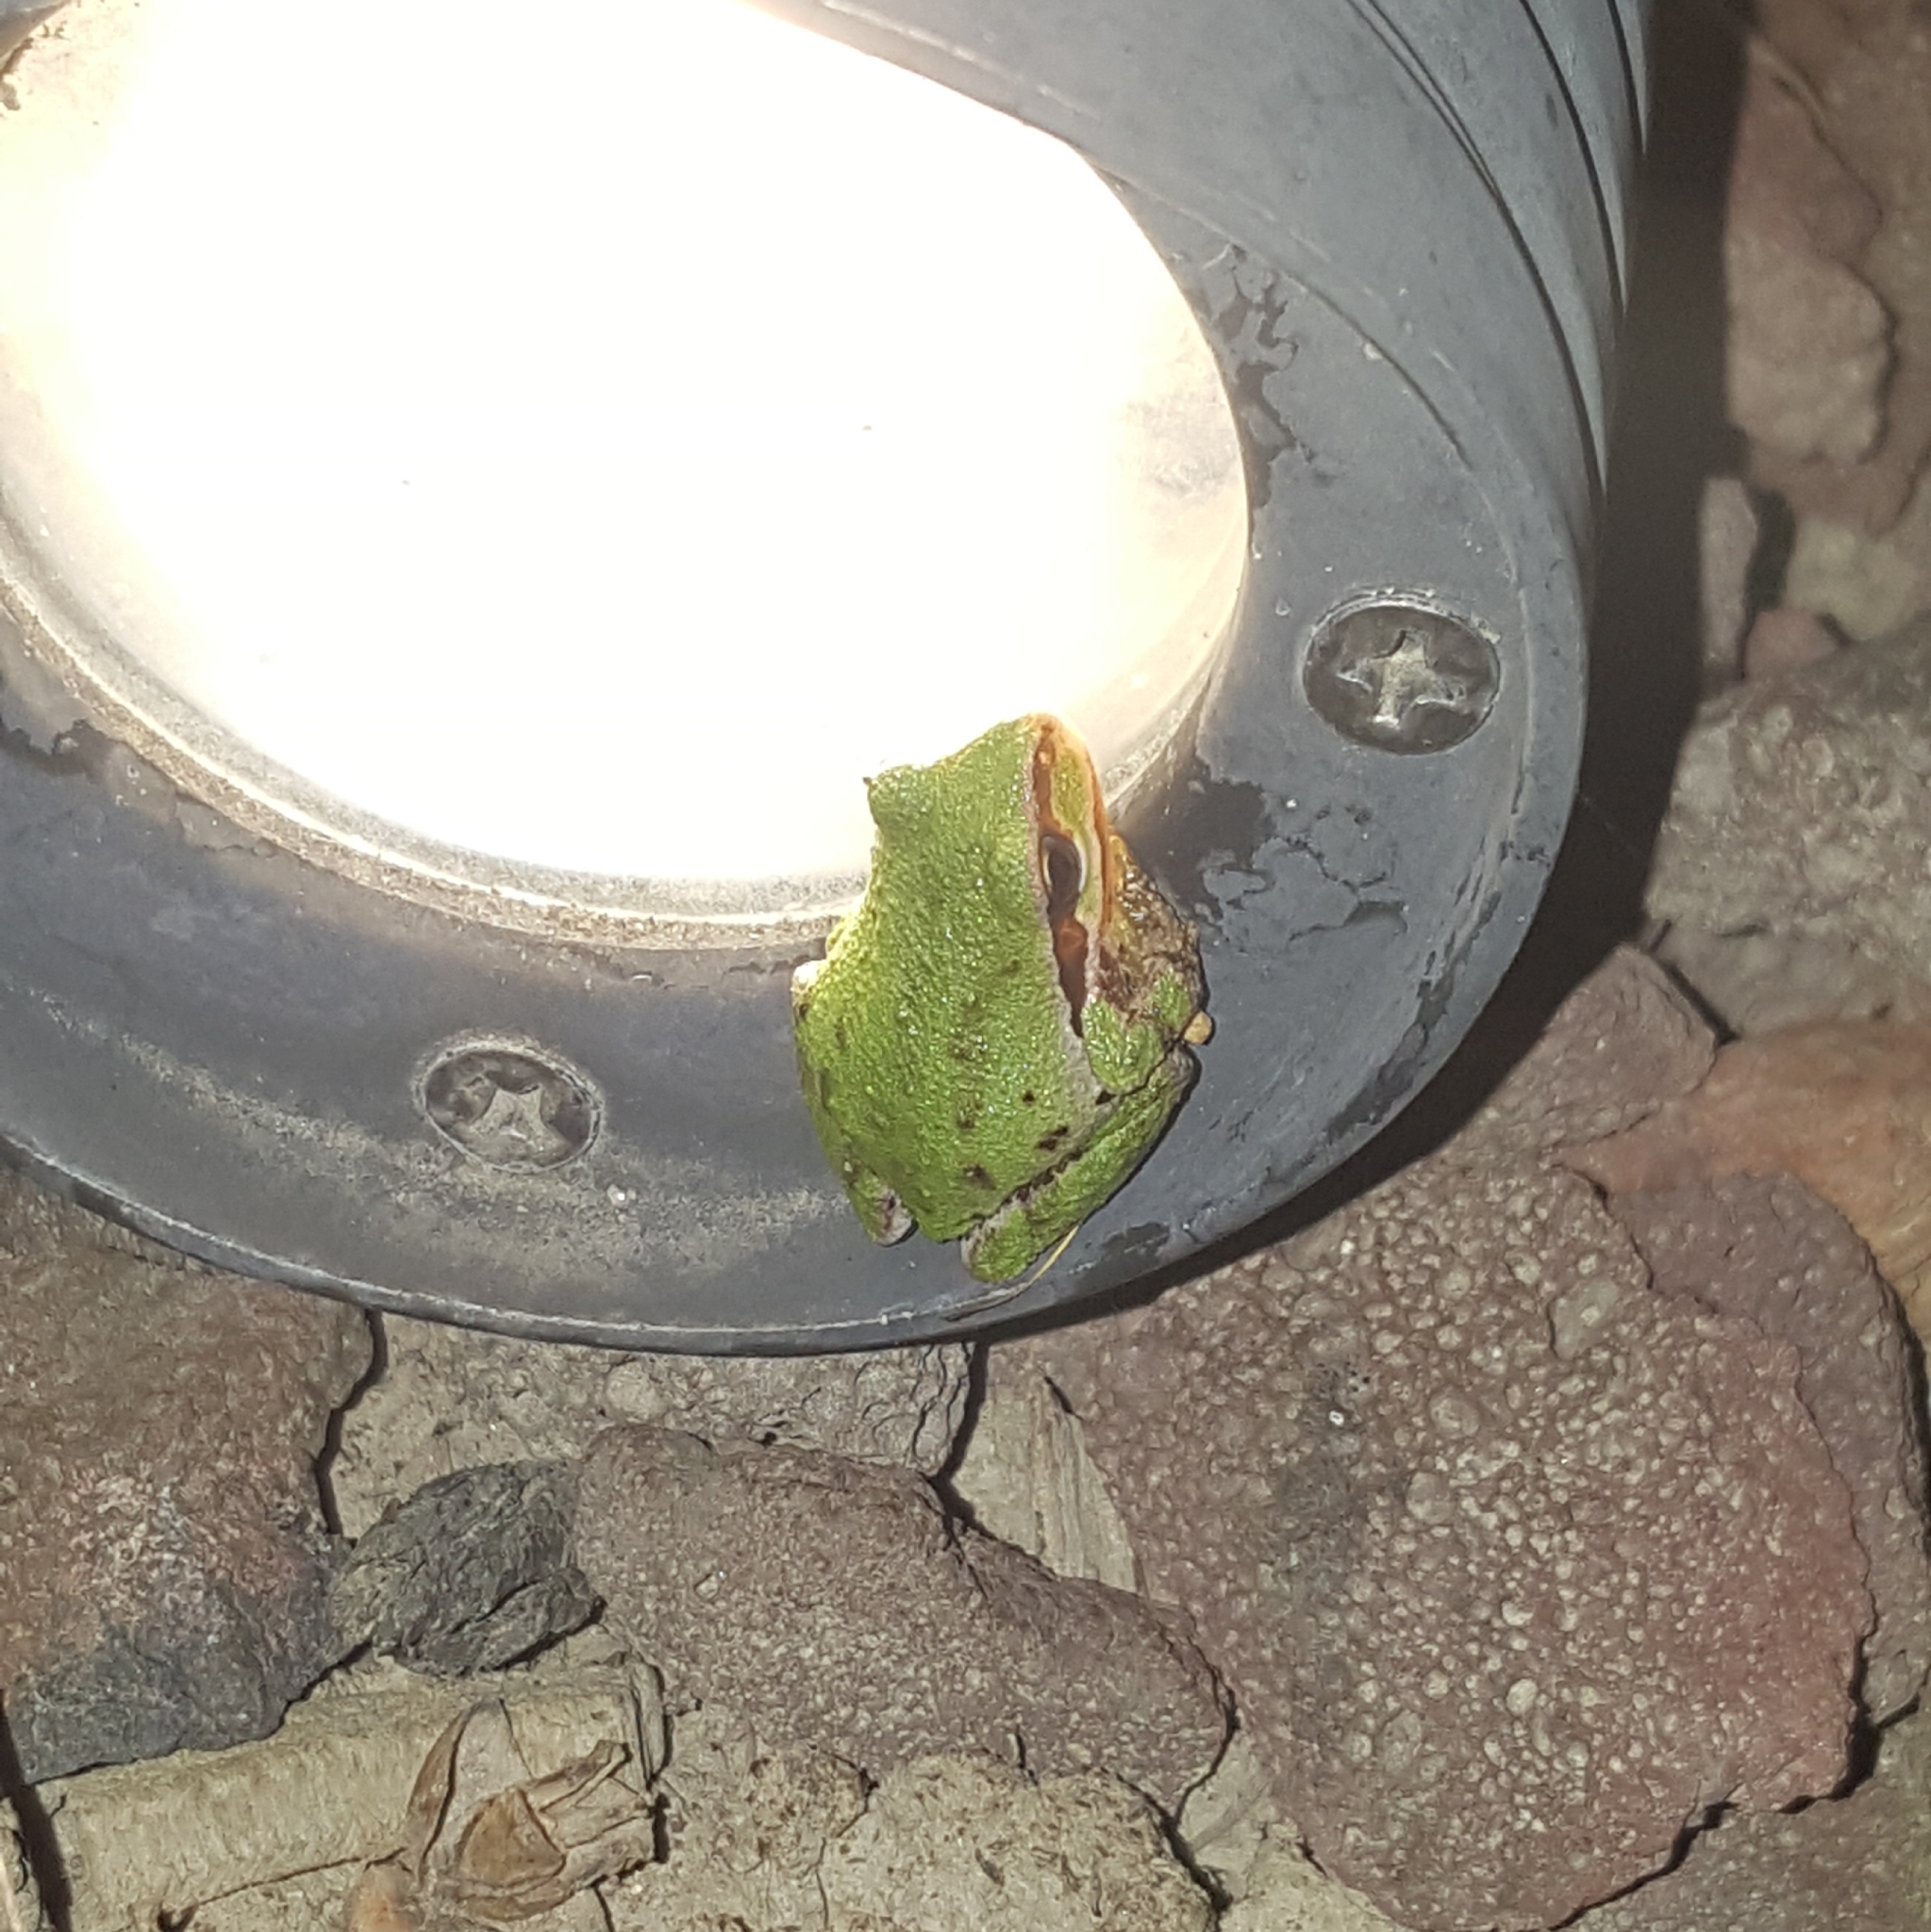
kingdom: Animalia
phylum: Chordata
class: Amphibia
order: Anura
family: Hylidae
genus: Pseudacris
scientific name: Pseudacris regilla
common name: Pacific chorus frog
